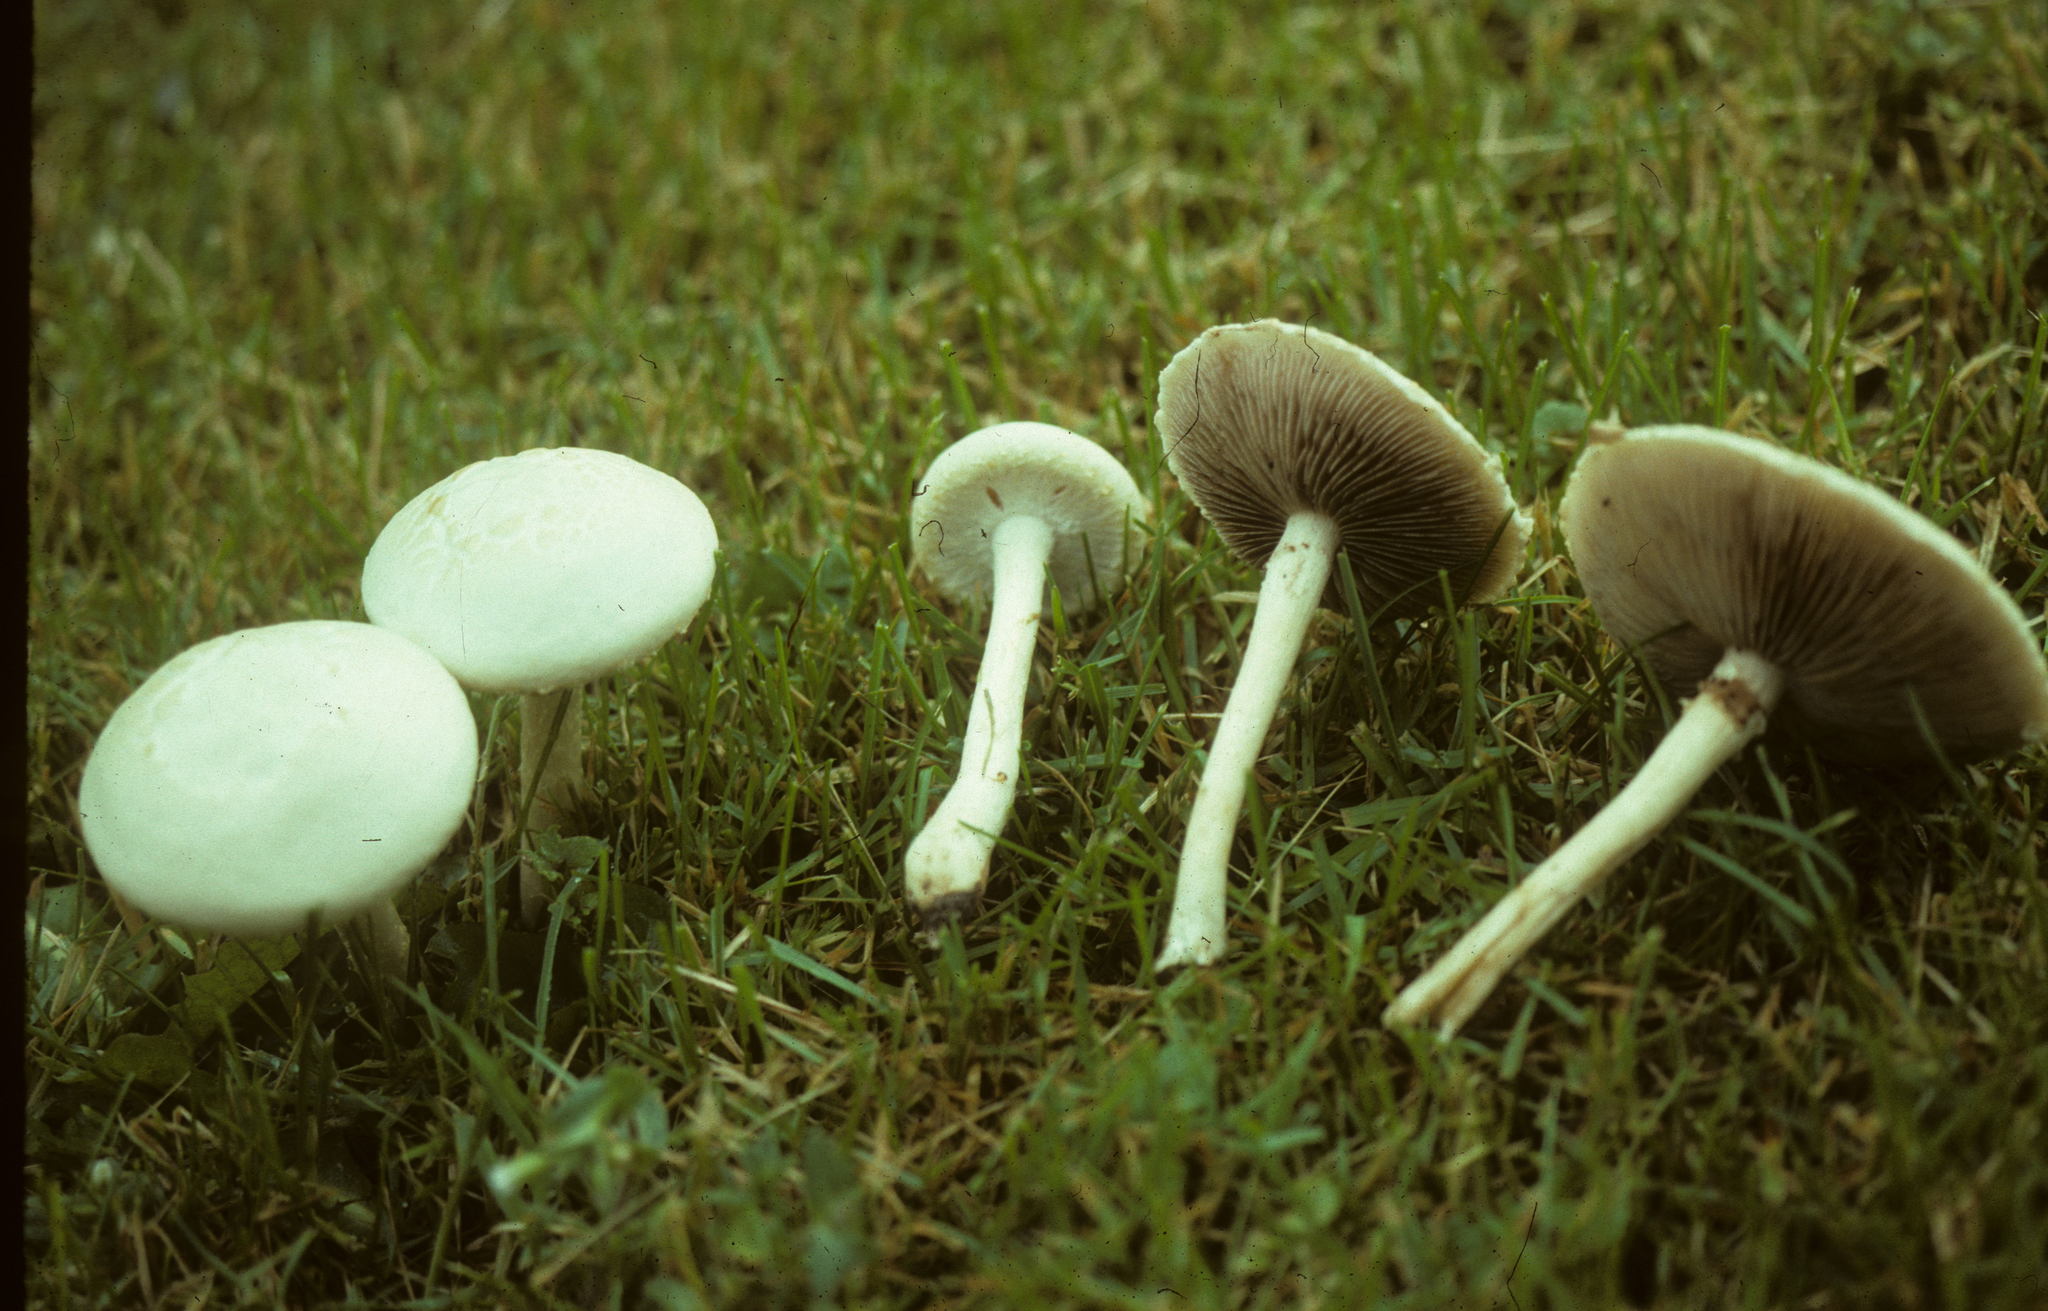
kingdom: Fungi
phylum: Basidiomycota
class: Agaricomycetes
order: Agaricales
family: Strophariaceae
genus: Agrocybe
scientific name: Agrocybe molesta
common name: Bearded fieldcap
